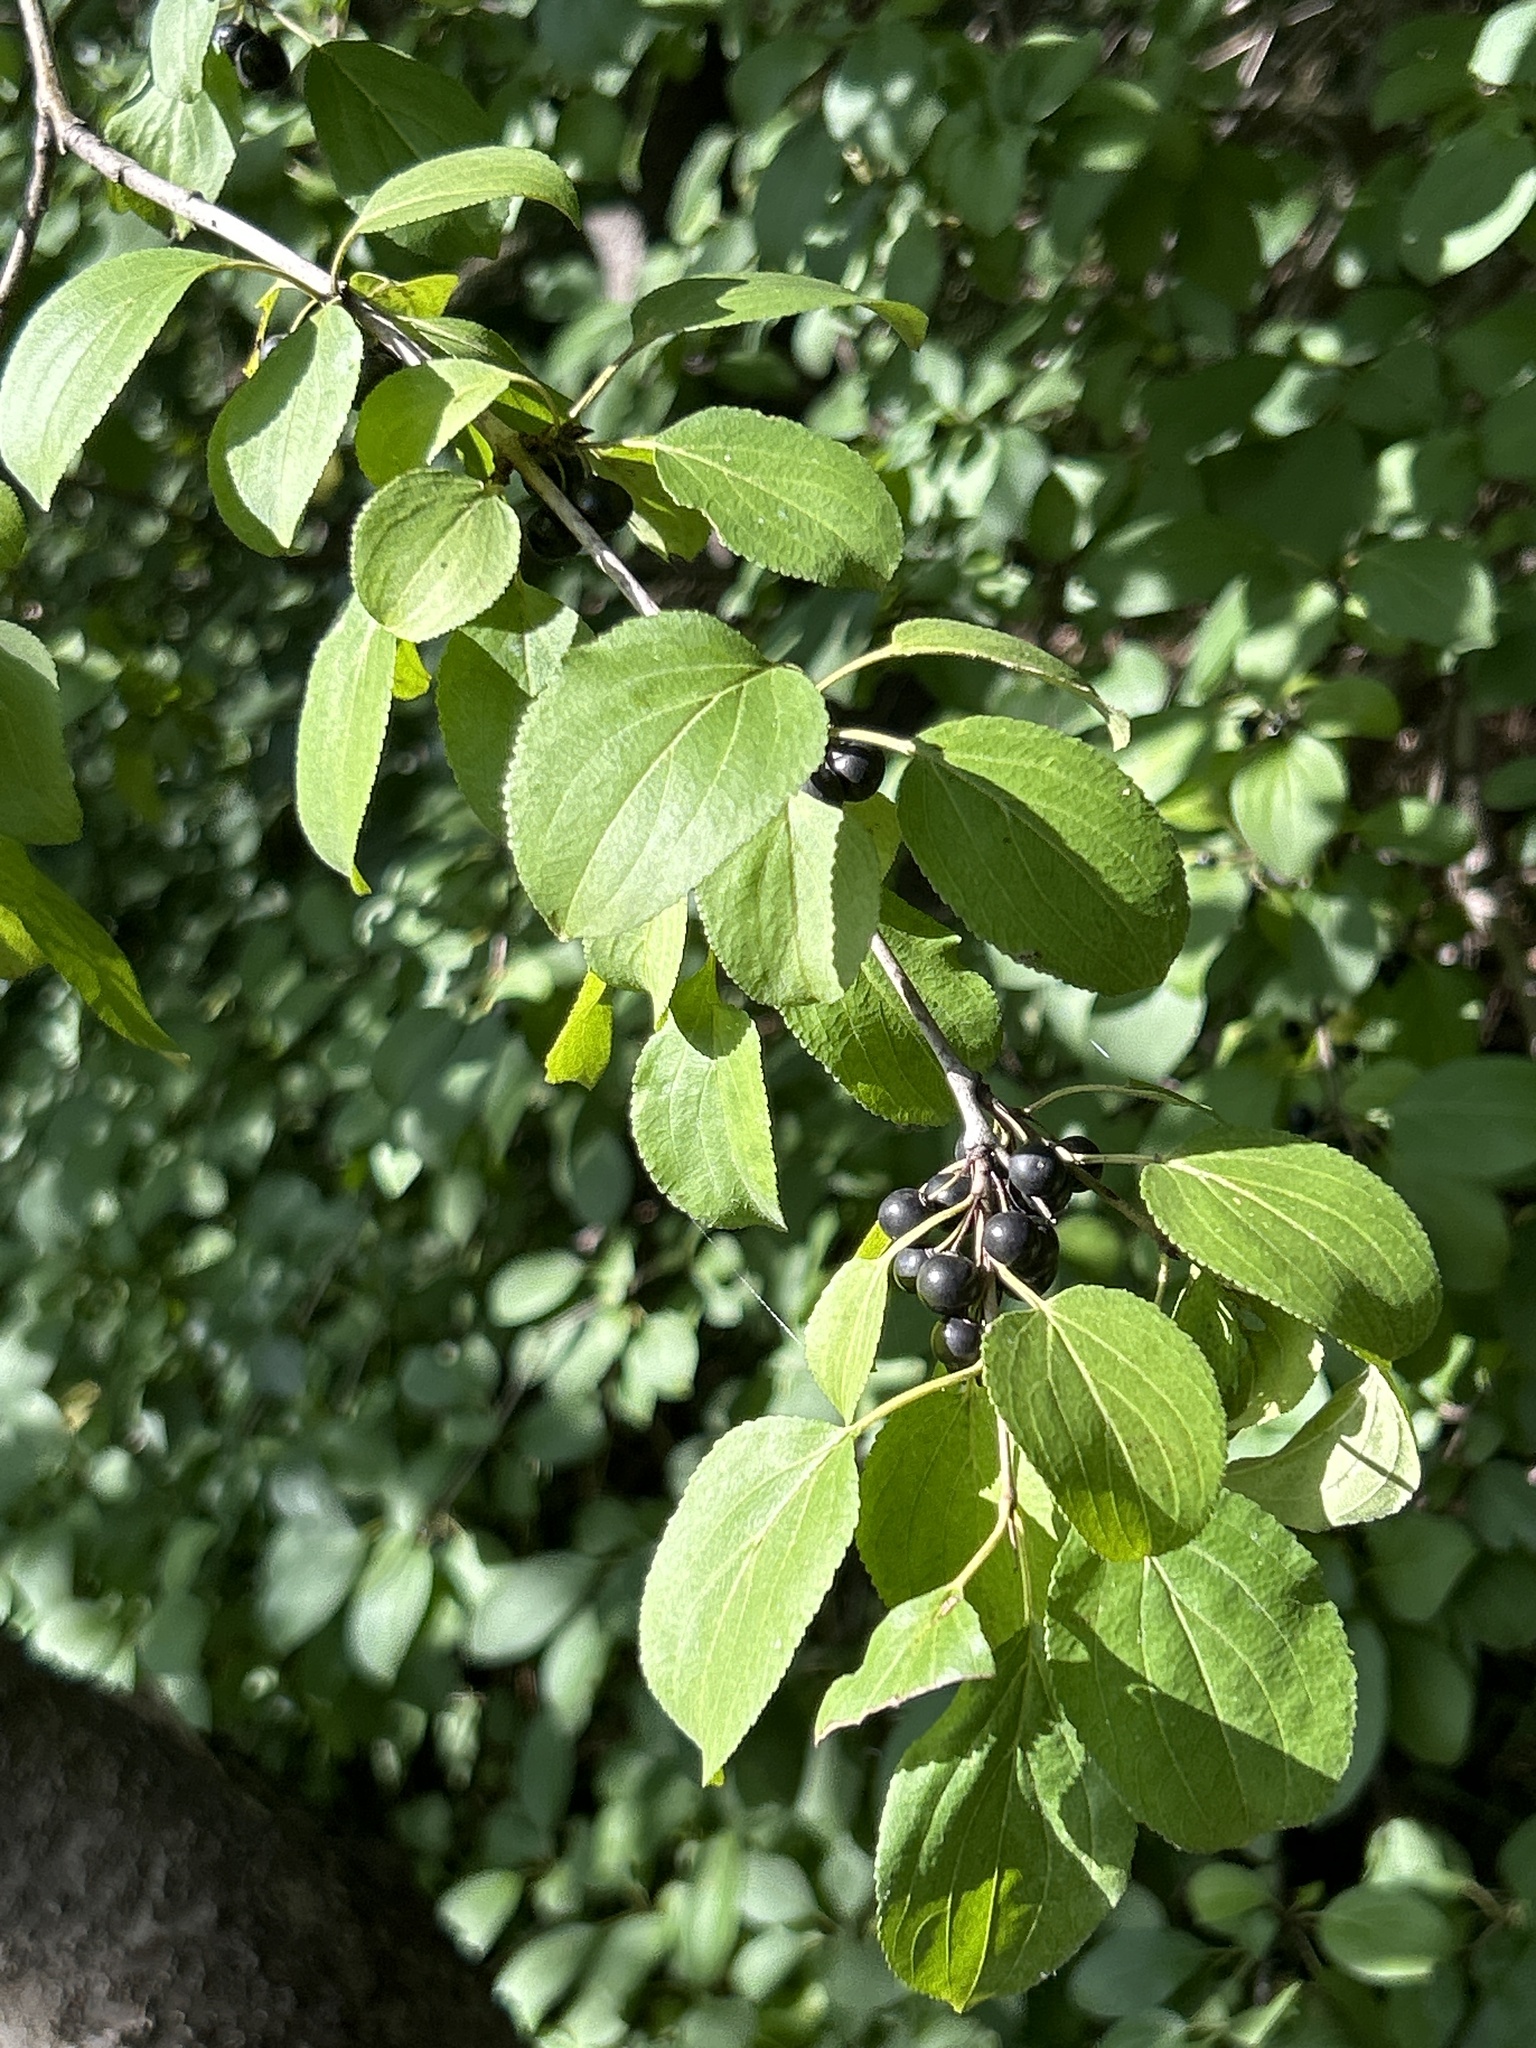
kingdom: Plantae
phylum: Tracheophyta
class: Magnoliopsida
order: Rosales
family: Rhamnaceae
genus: Rhamnus
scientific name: Rhamnus cathartica
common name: Common buckthorn
